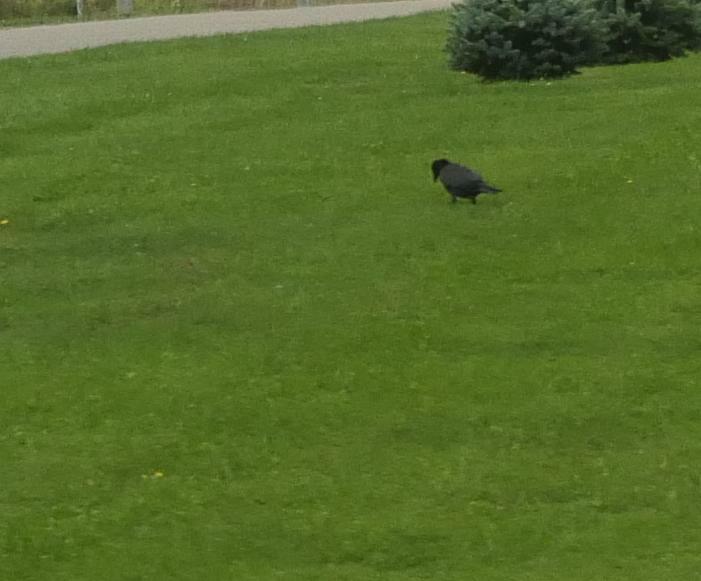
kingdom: Animalia
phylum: Chordata
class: Aves
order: Passeriformes
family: Corvidae
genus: Corvus
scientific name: Corvus brachyrhynchos
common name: American crow
